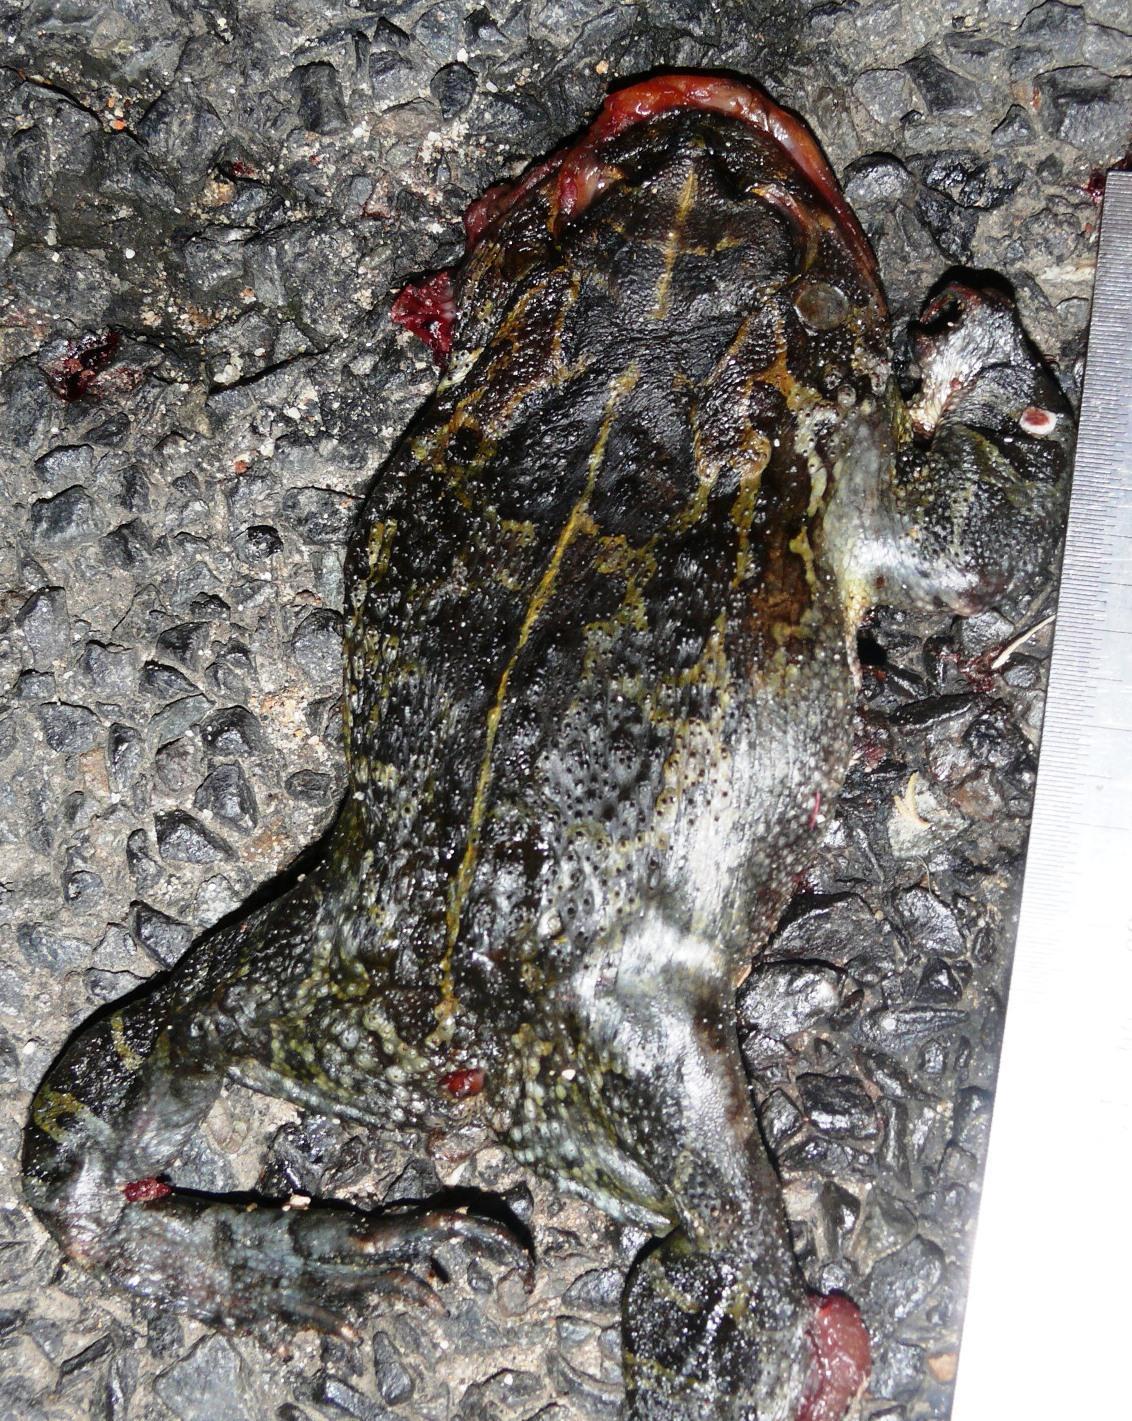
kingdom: Animalia
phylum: Chordata
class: Amphibia
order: Anura
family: Bufonidae
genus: Sclerophrys
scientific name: Sclerophrys pantherina
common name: Panther toad
